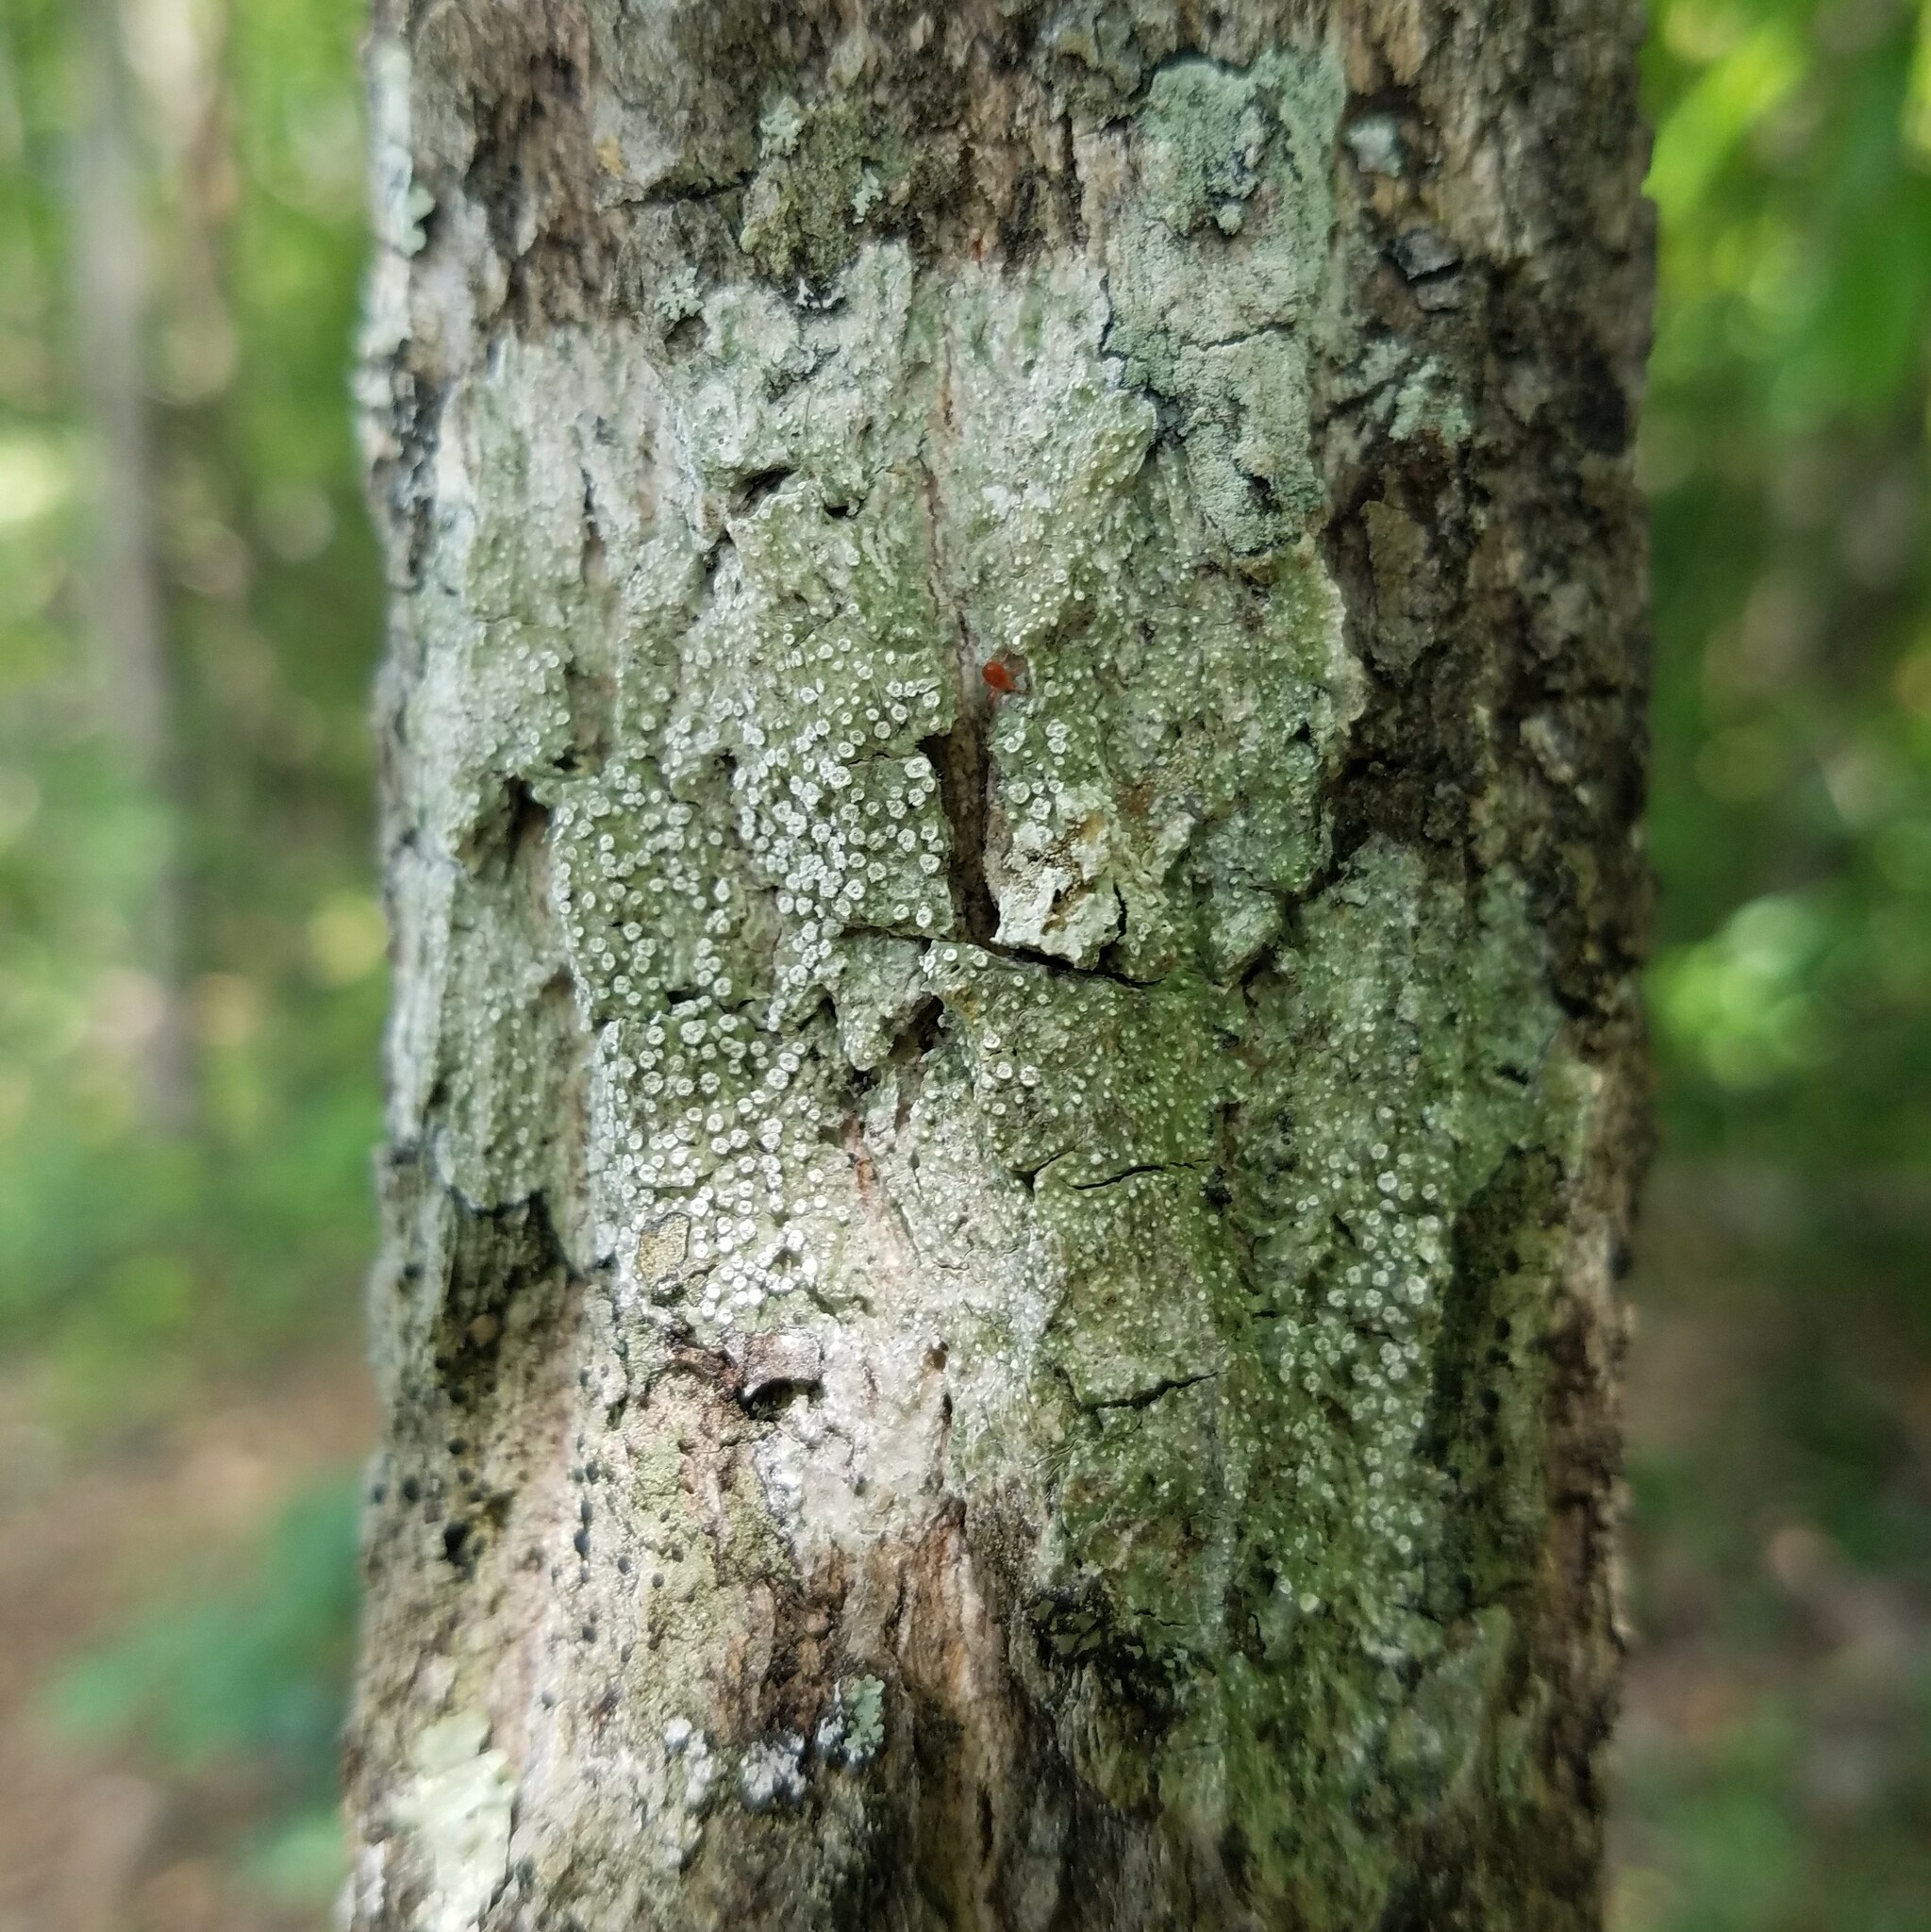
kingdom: Fungi
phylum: Ascomycota
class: Lecanoromycetes
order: Pertusariales
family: Pertusariaceae
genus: Lepra
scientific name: Lepra amara
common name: Bitter wart lichen
